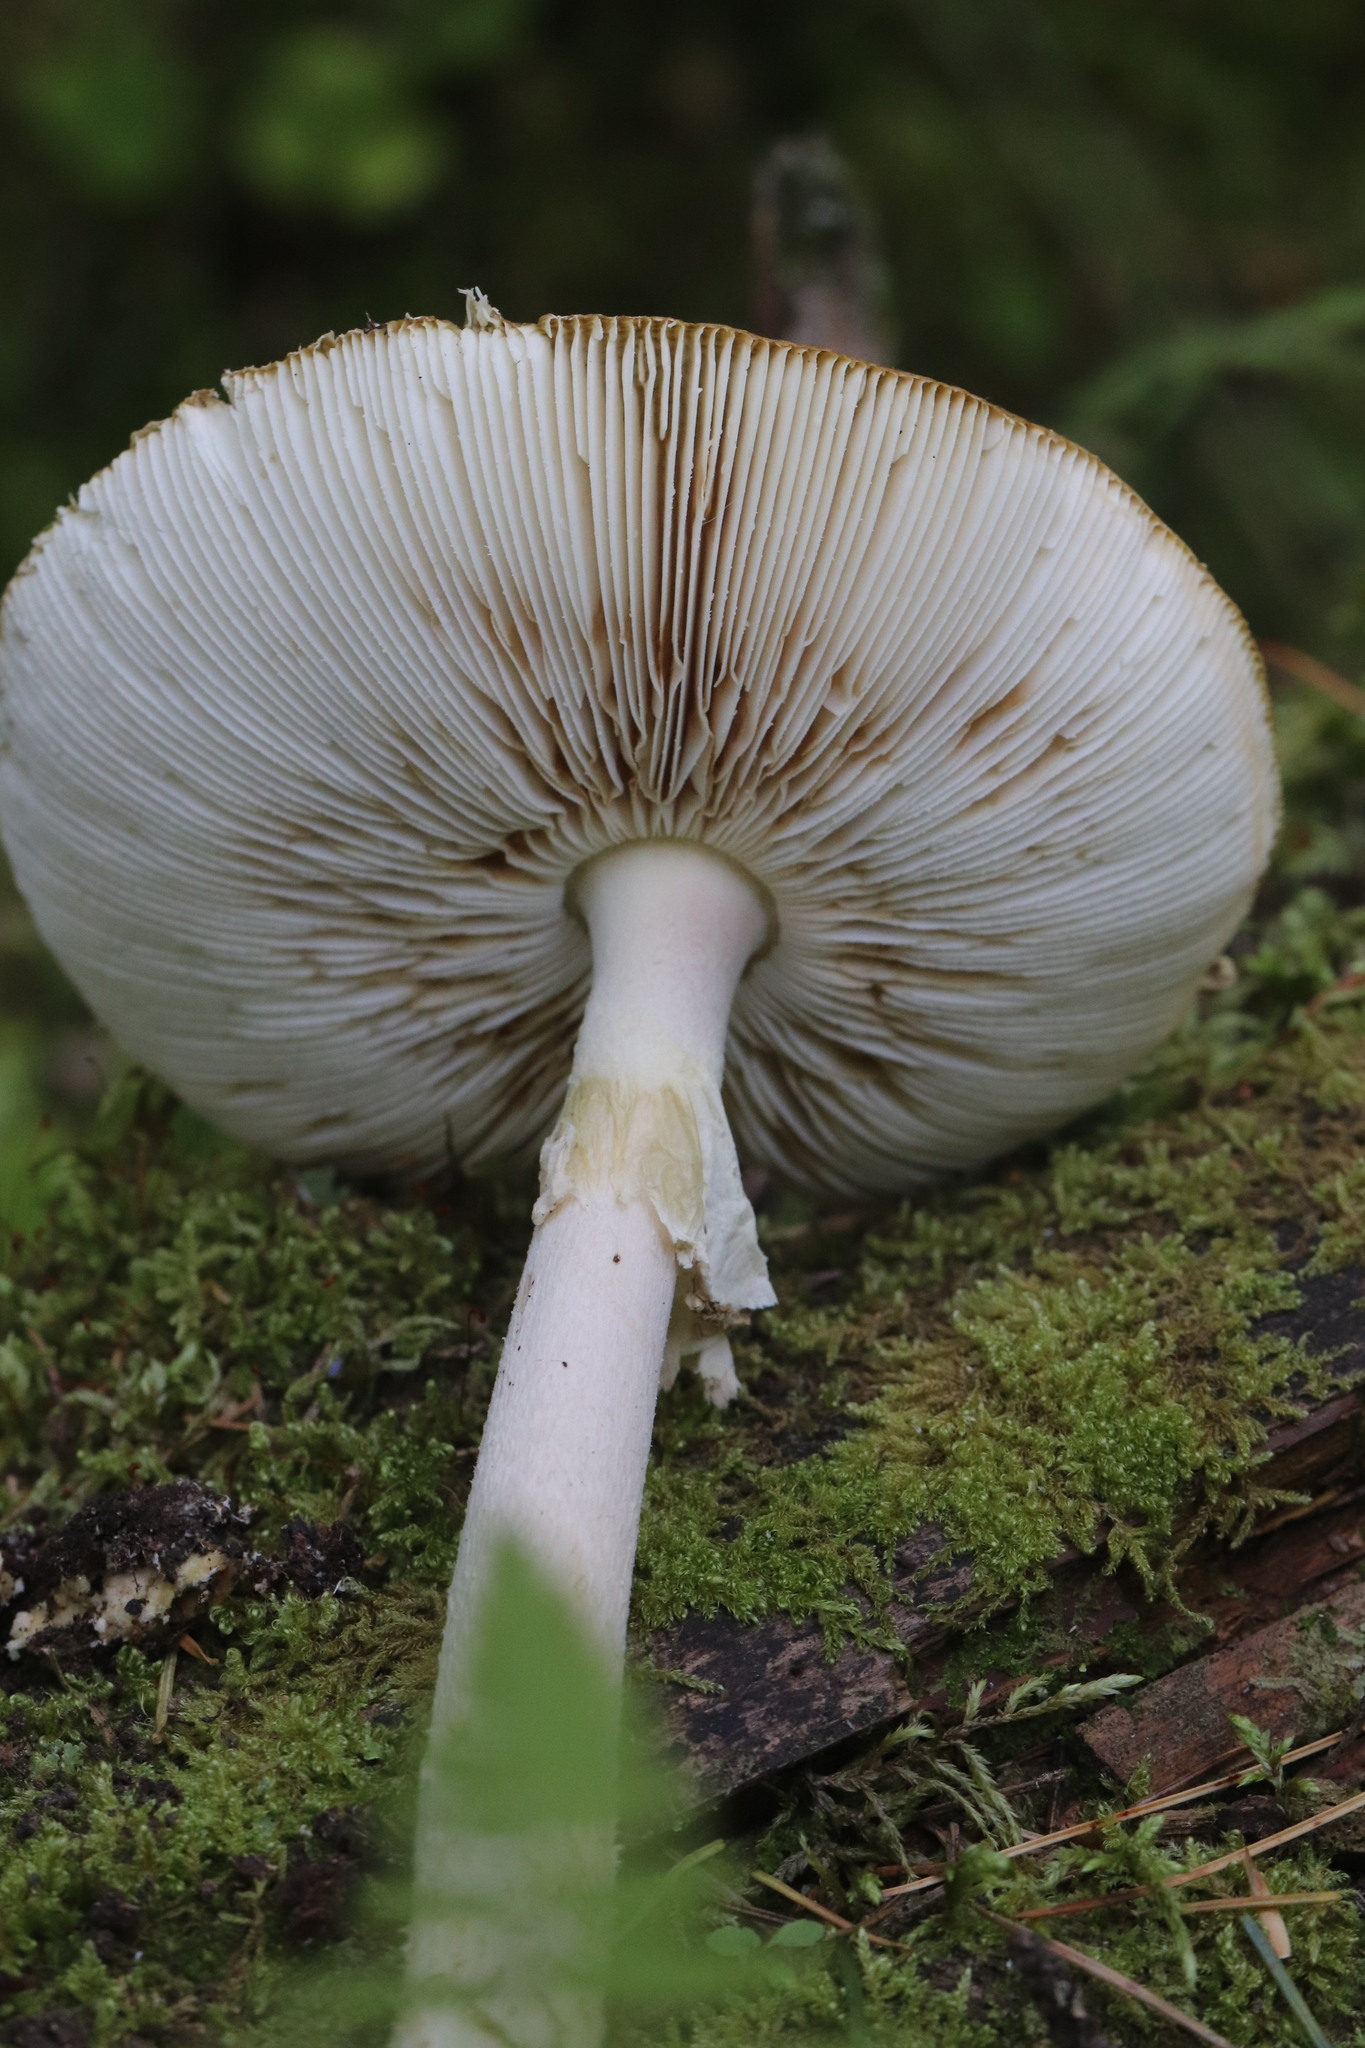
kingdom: Fungi
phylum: Basidiomycota
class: Agaricomycetes
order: Agaricales
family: Amanitaceae
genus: Amanita
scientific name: Amanita porphyria
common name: Grey veiled amanita
